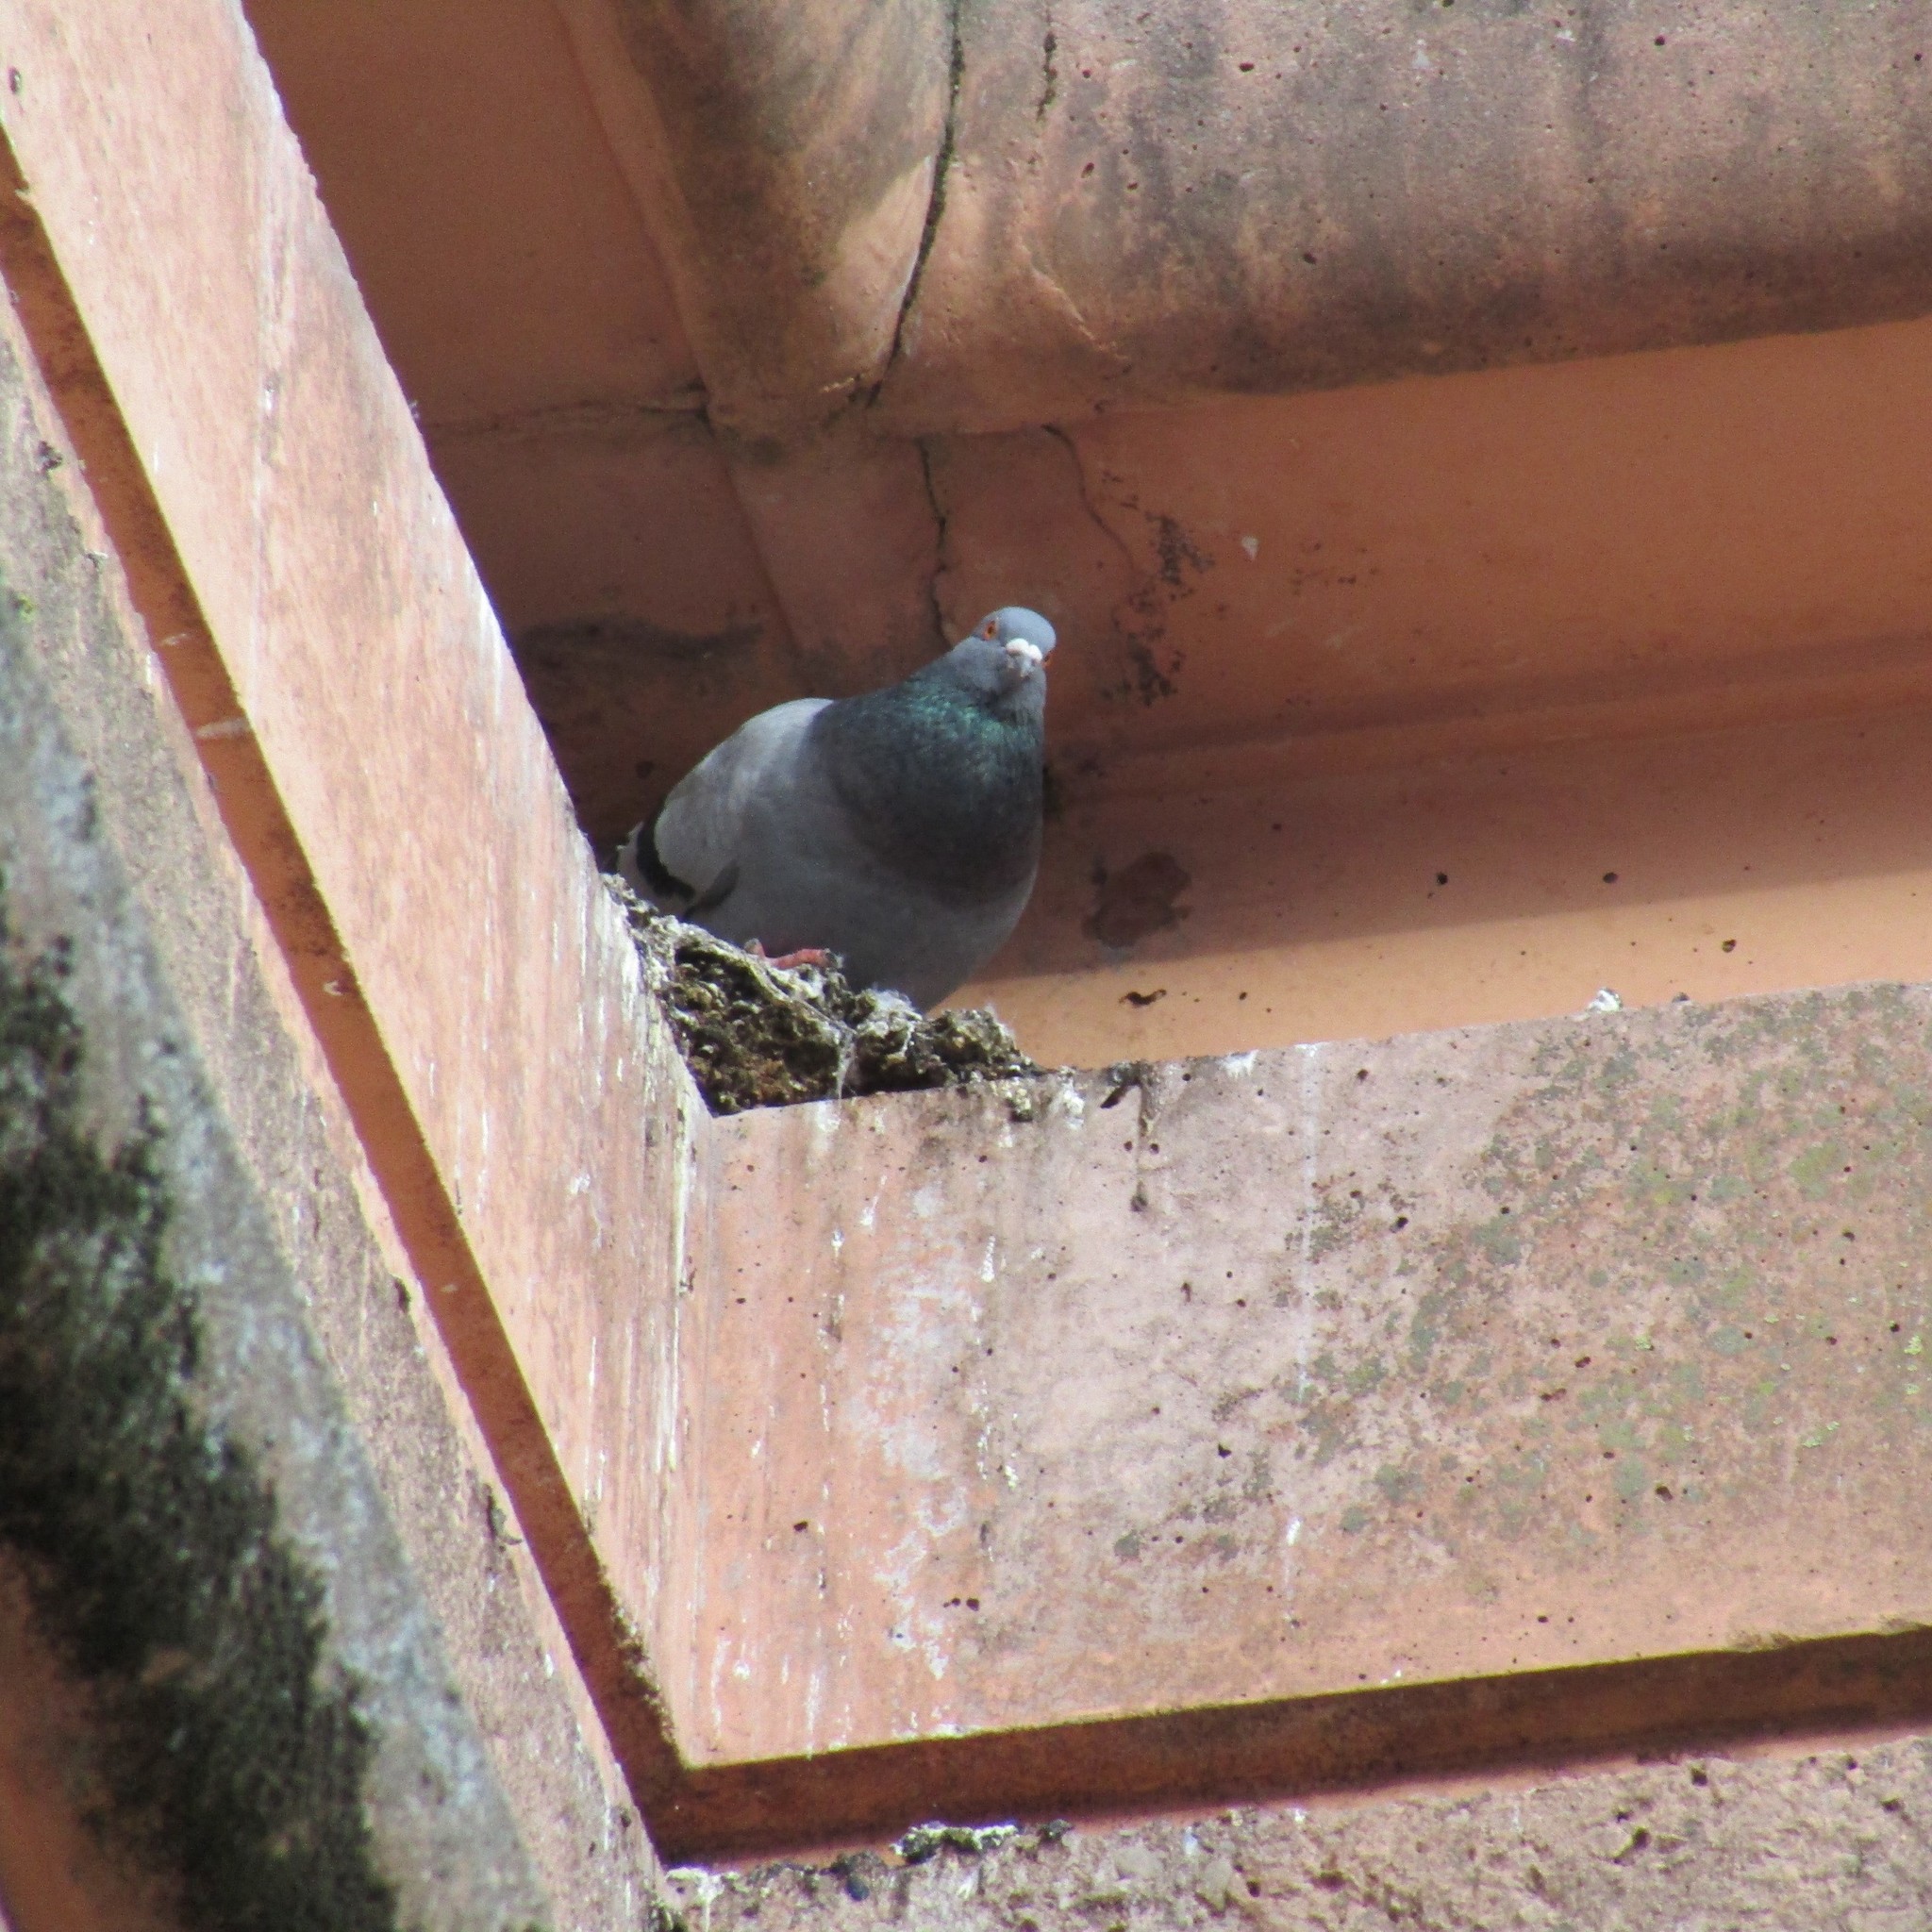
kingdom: Animalia
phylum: Chordata
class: Aves
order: Columbiformes
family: Columbidae
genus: Columba
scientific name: Columba livia
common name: Rock pigeon
